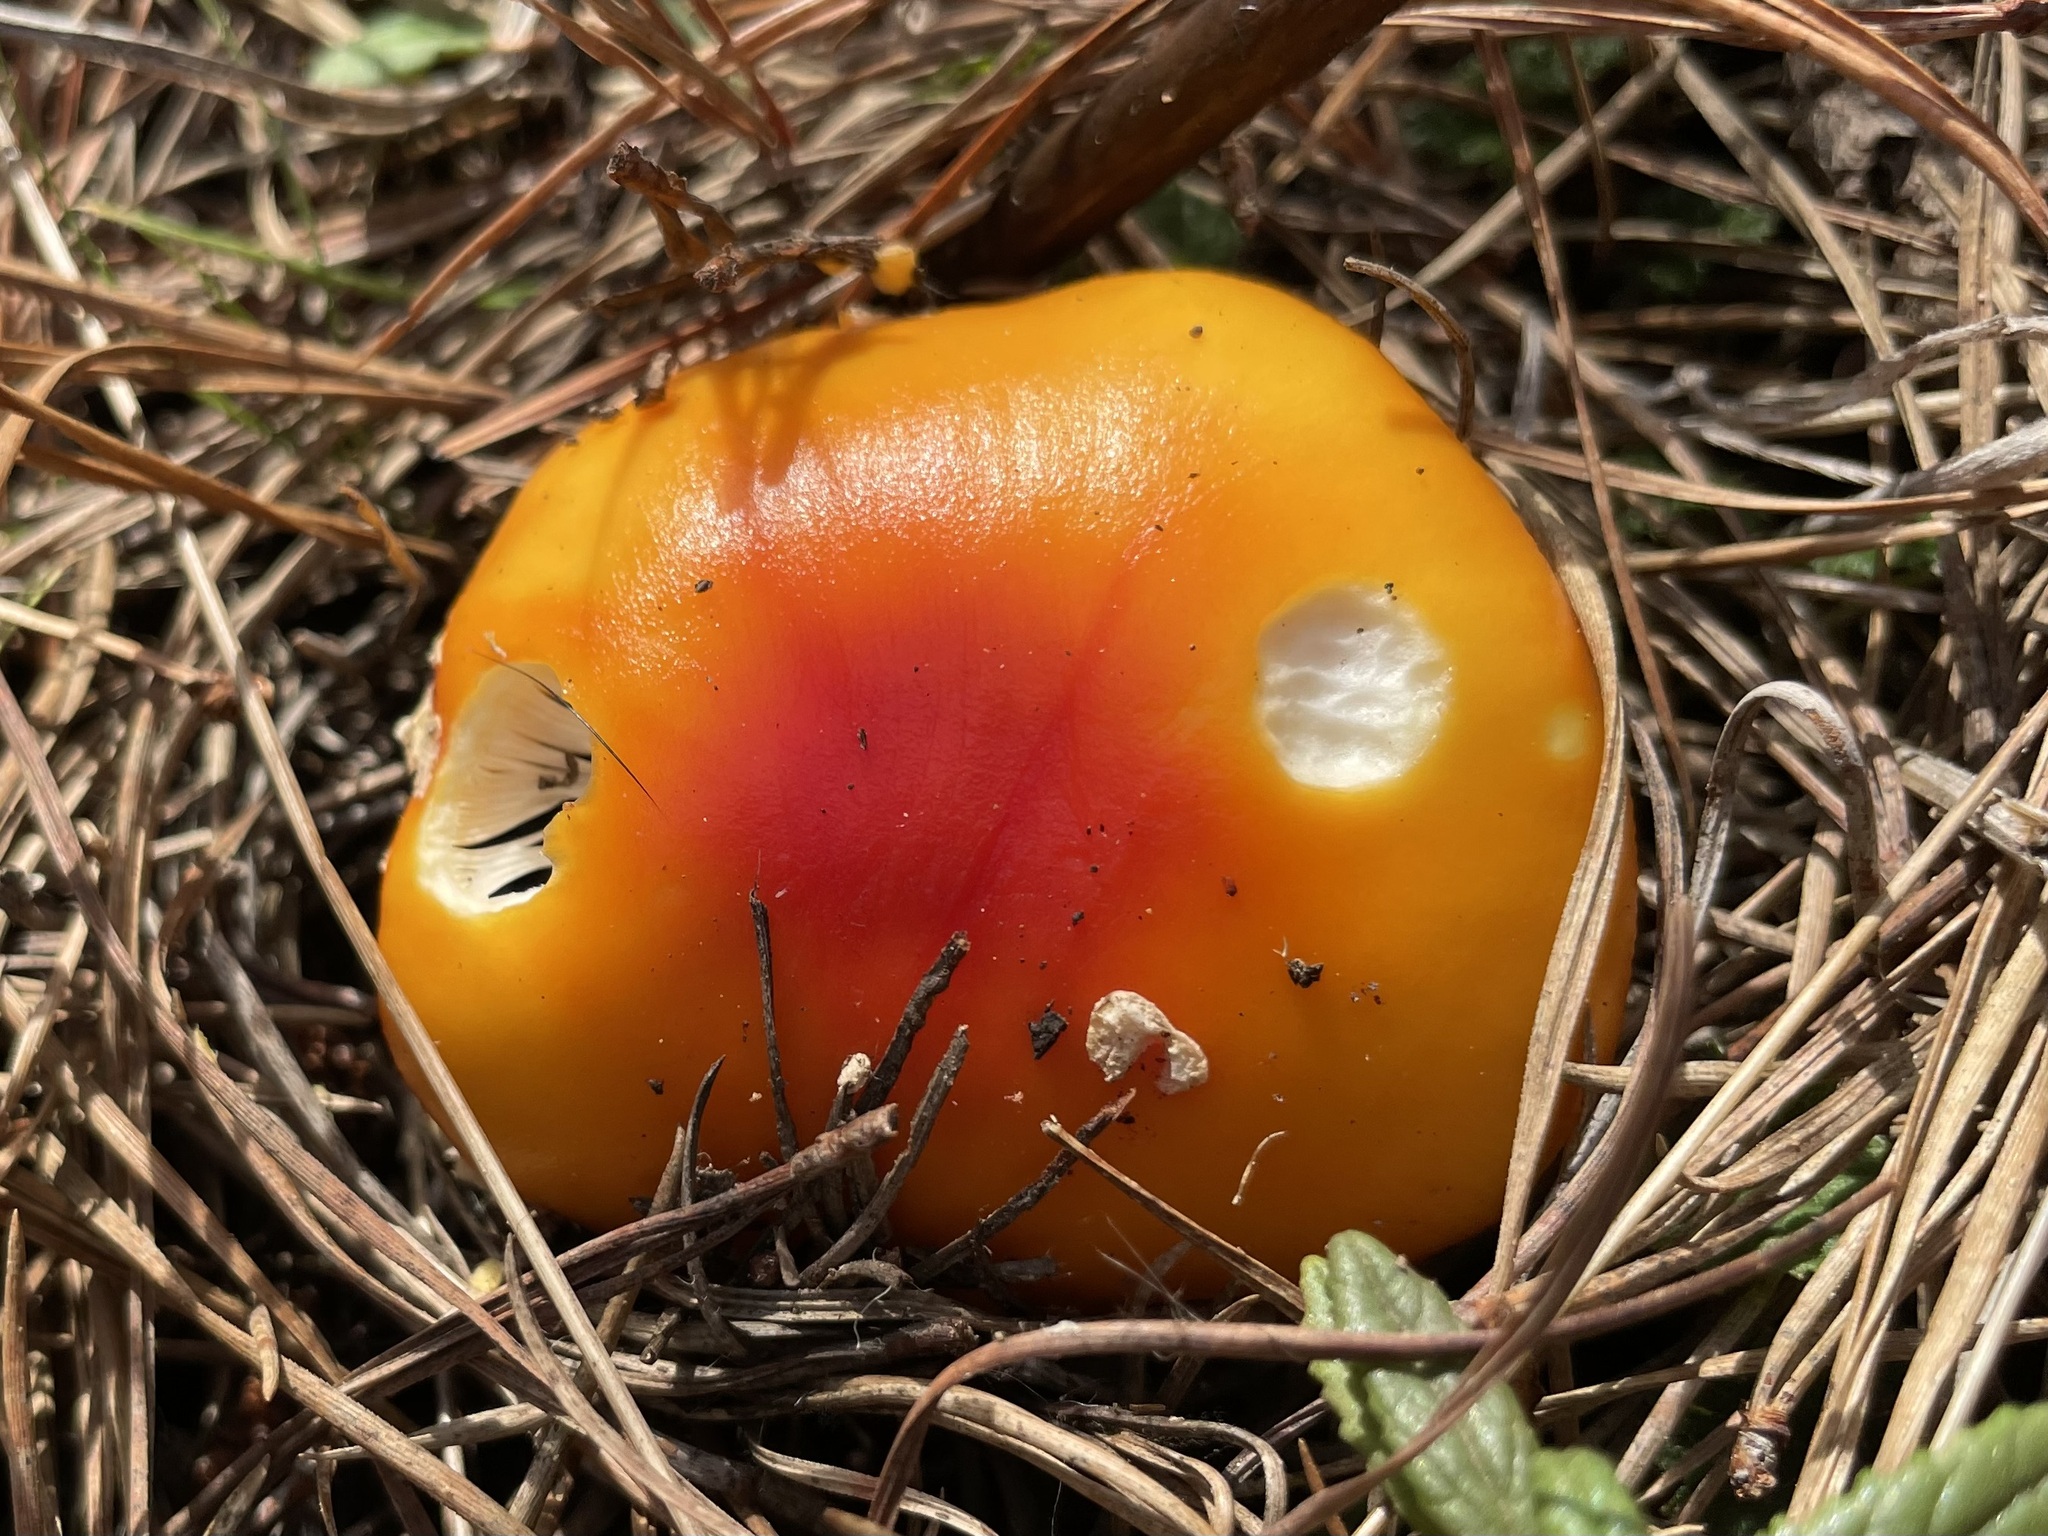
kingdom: Fungi
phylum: Basidiomycota
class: Agaricomycetes
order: Agaricales
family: Amanitaceae
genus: Amanita
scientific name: Amanita muscaria
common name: Fly agaric
